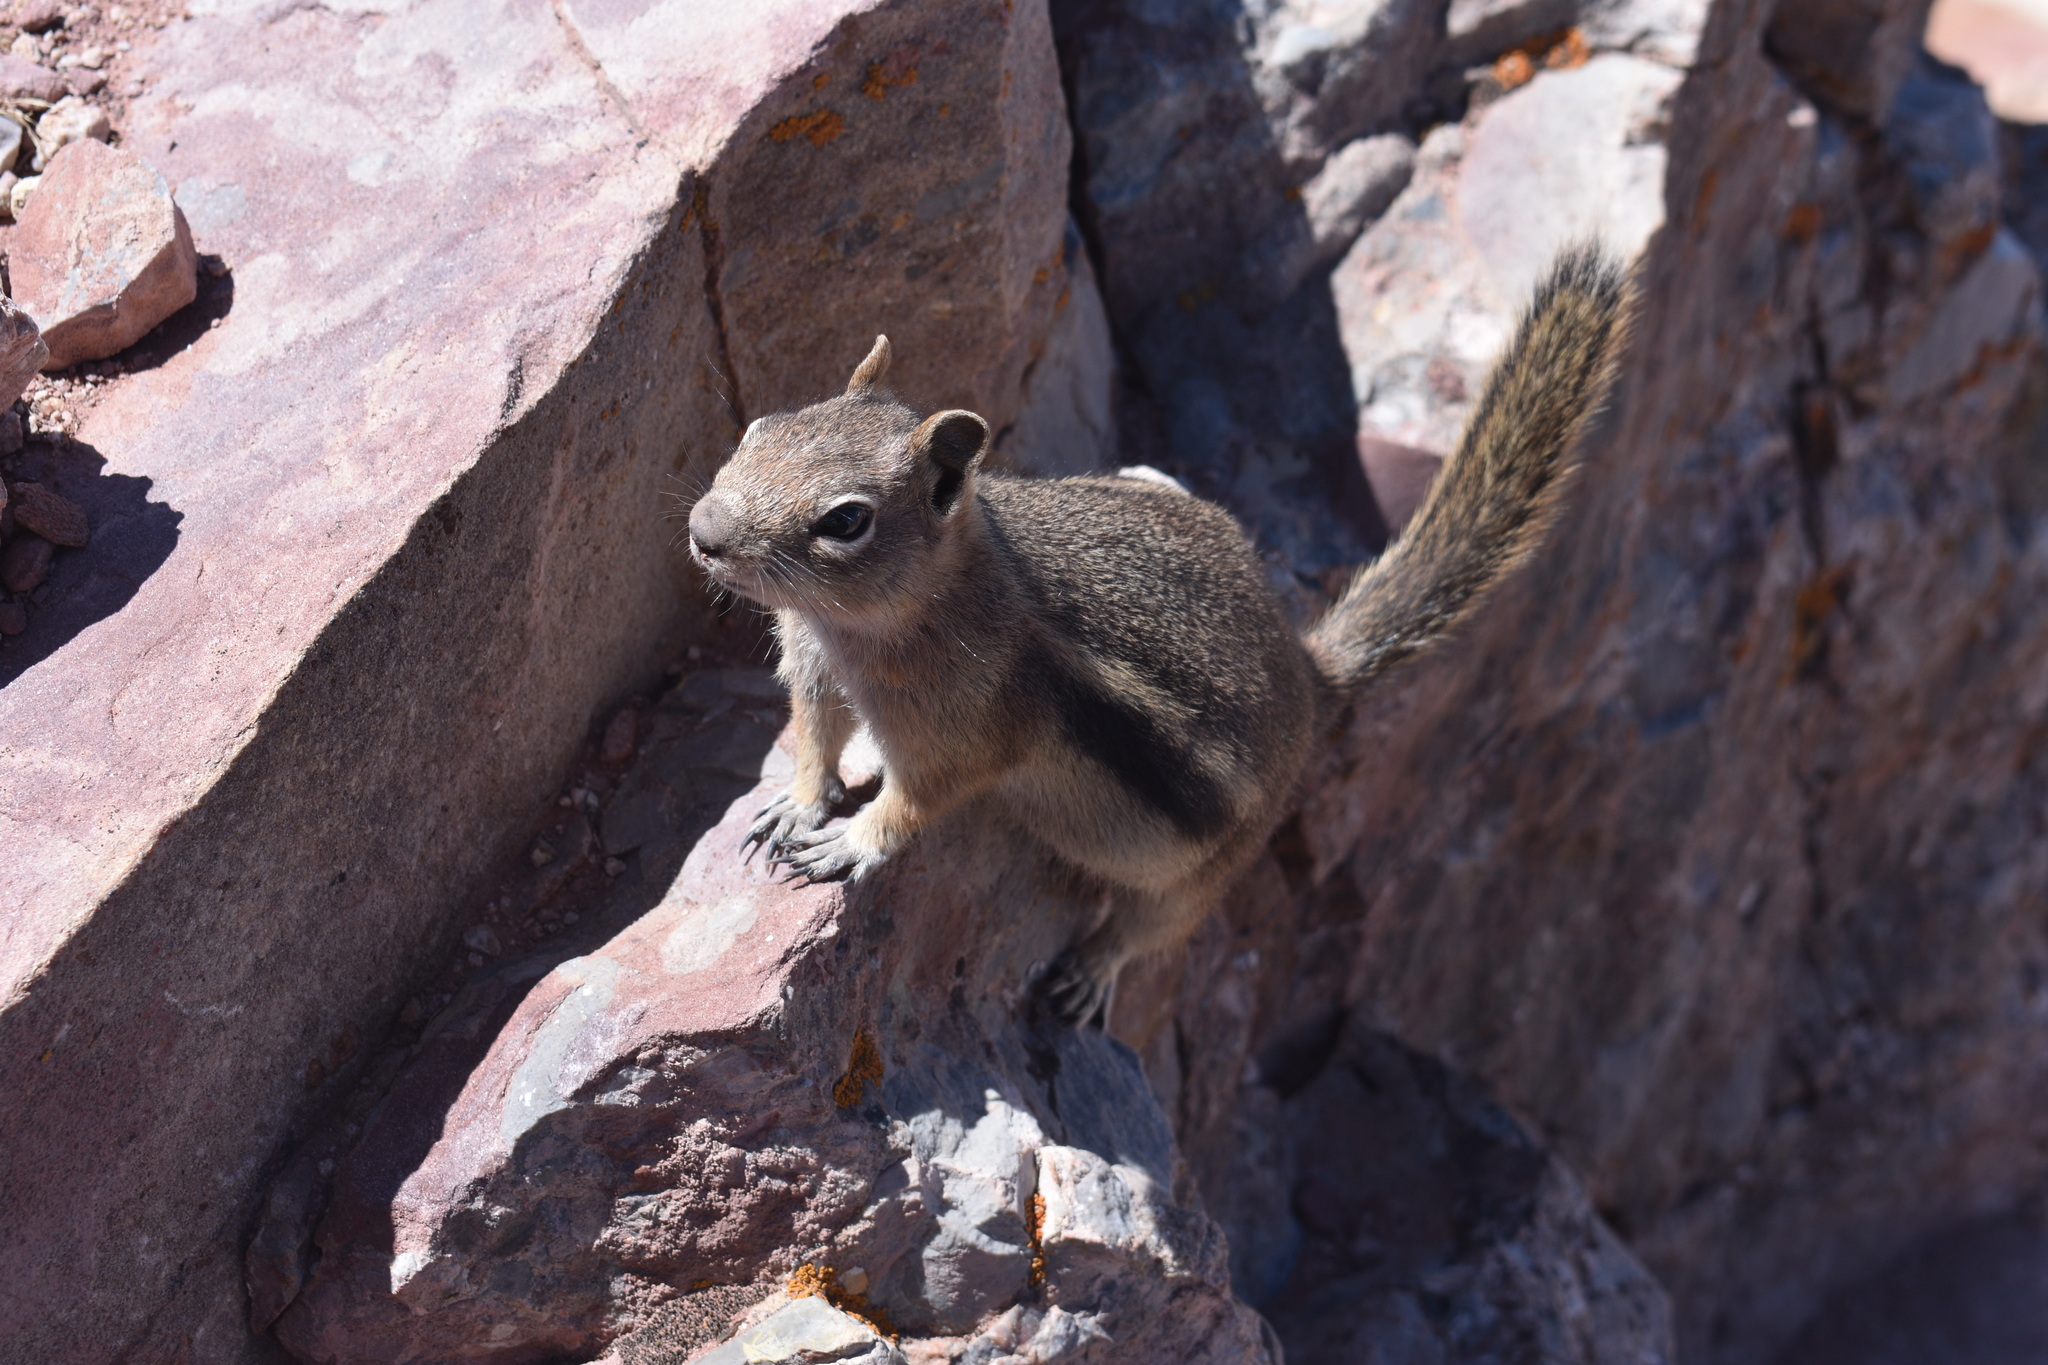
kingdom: Animalia
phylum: Chordata
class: Mammalia
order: Rodentia
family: Sciuridae
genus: Callospermophilus
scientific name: Callospermophilus lateralis
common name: Golden-mantled ground squirrel
